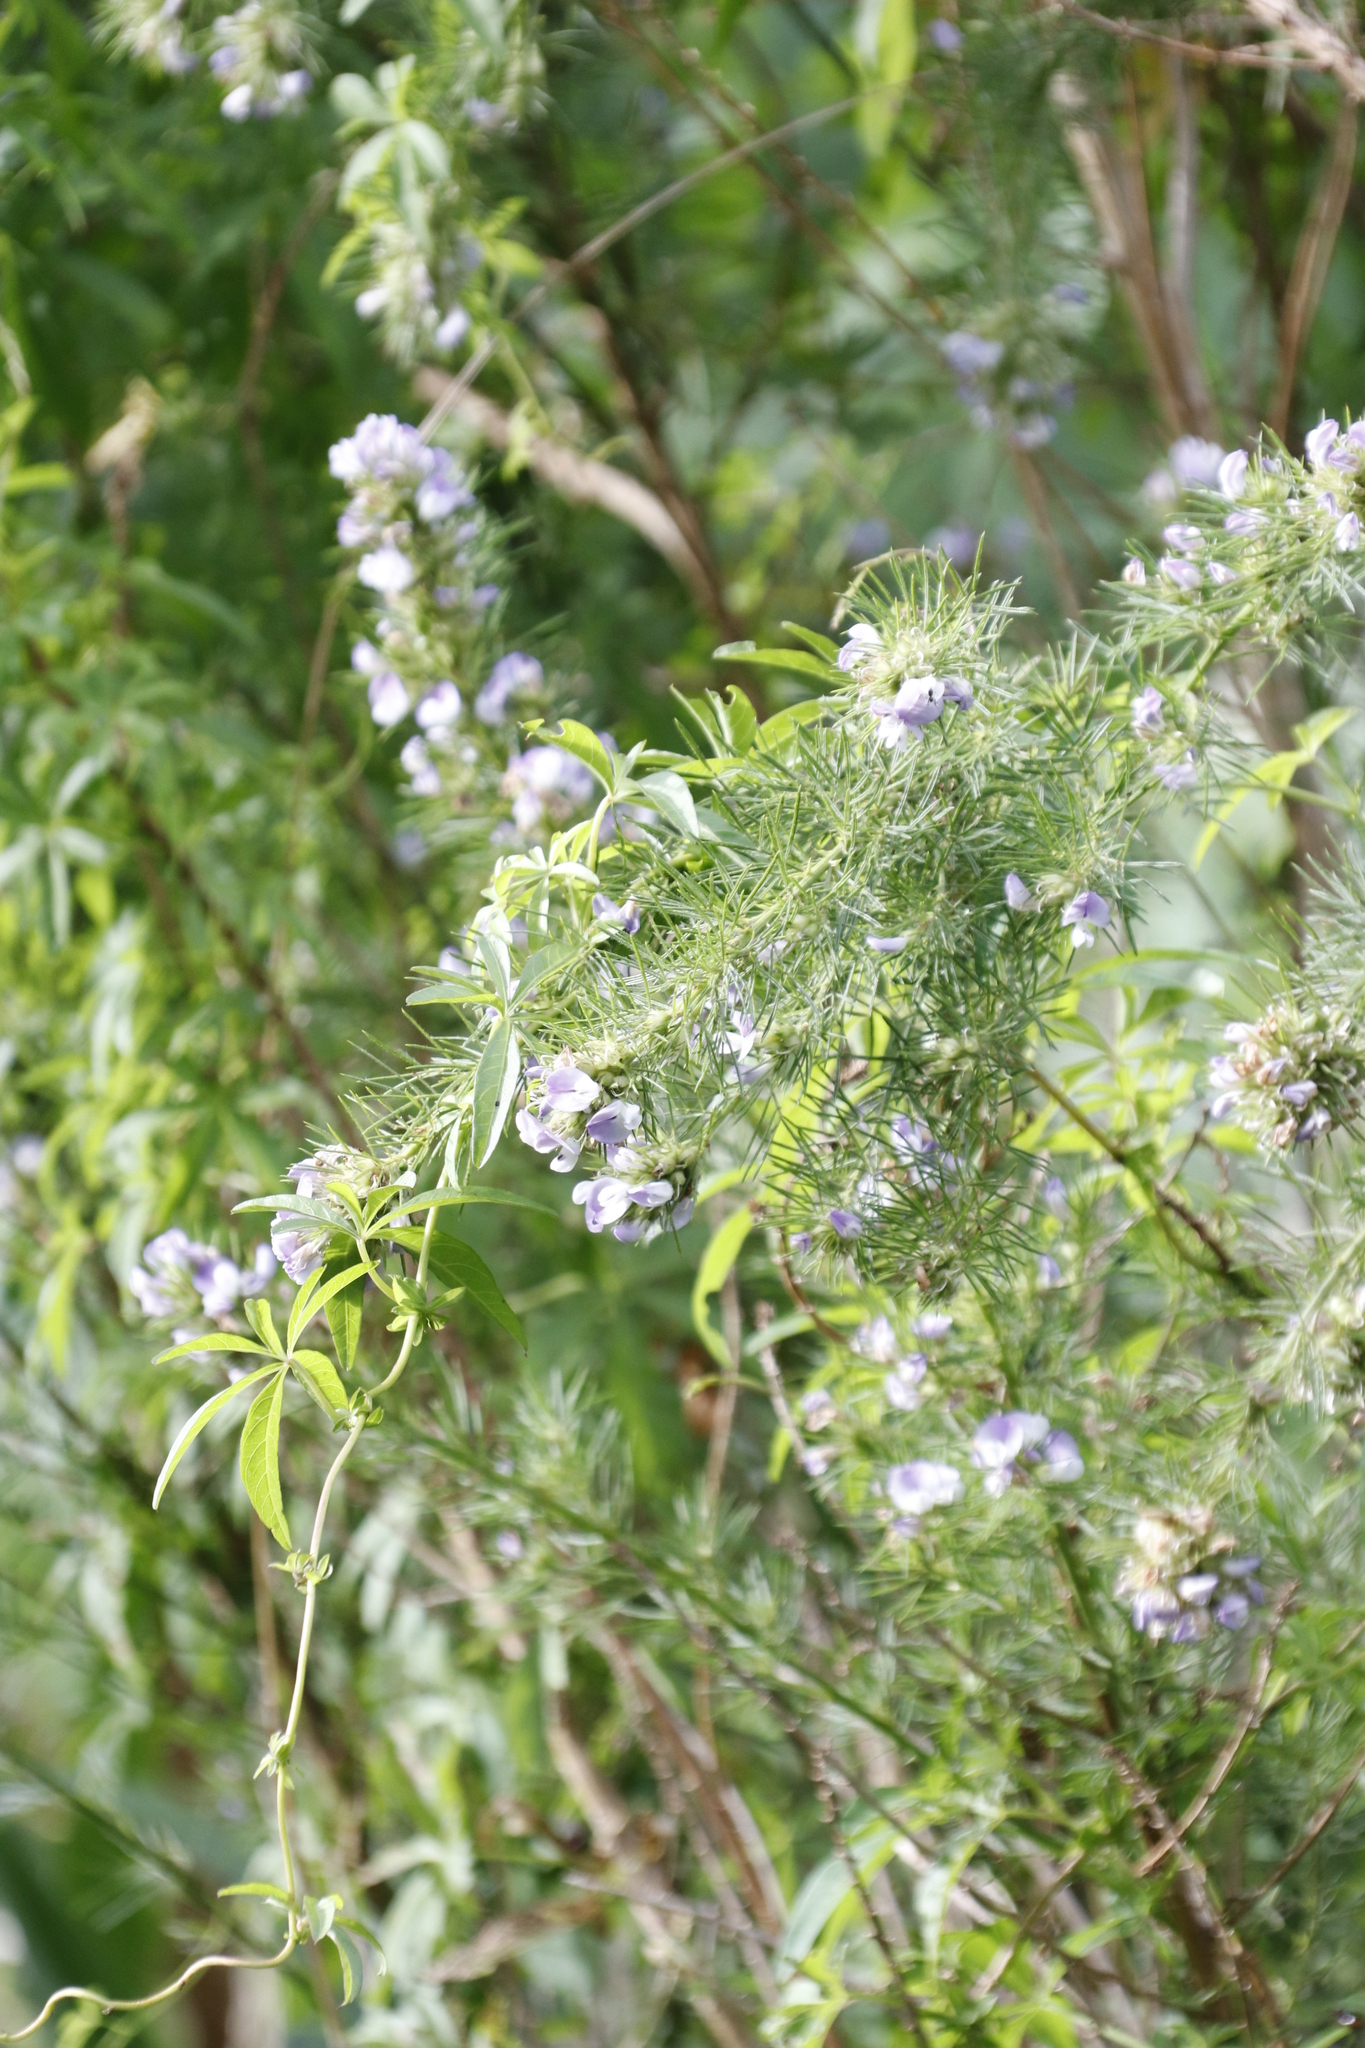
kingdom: Plantae
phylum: Tracheophyta
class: Magnoliopsida
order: Fabales
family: Fabaceae
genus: Psoralea
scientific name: Psoralea pinnata
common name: African scurfpea
